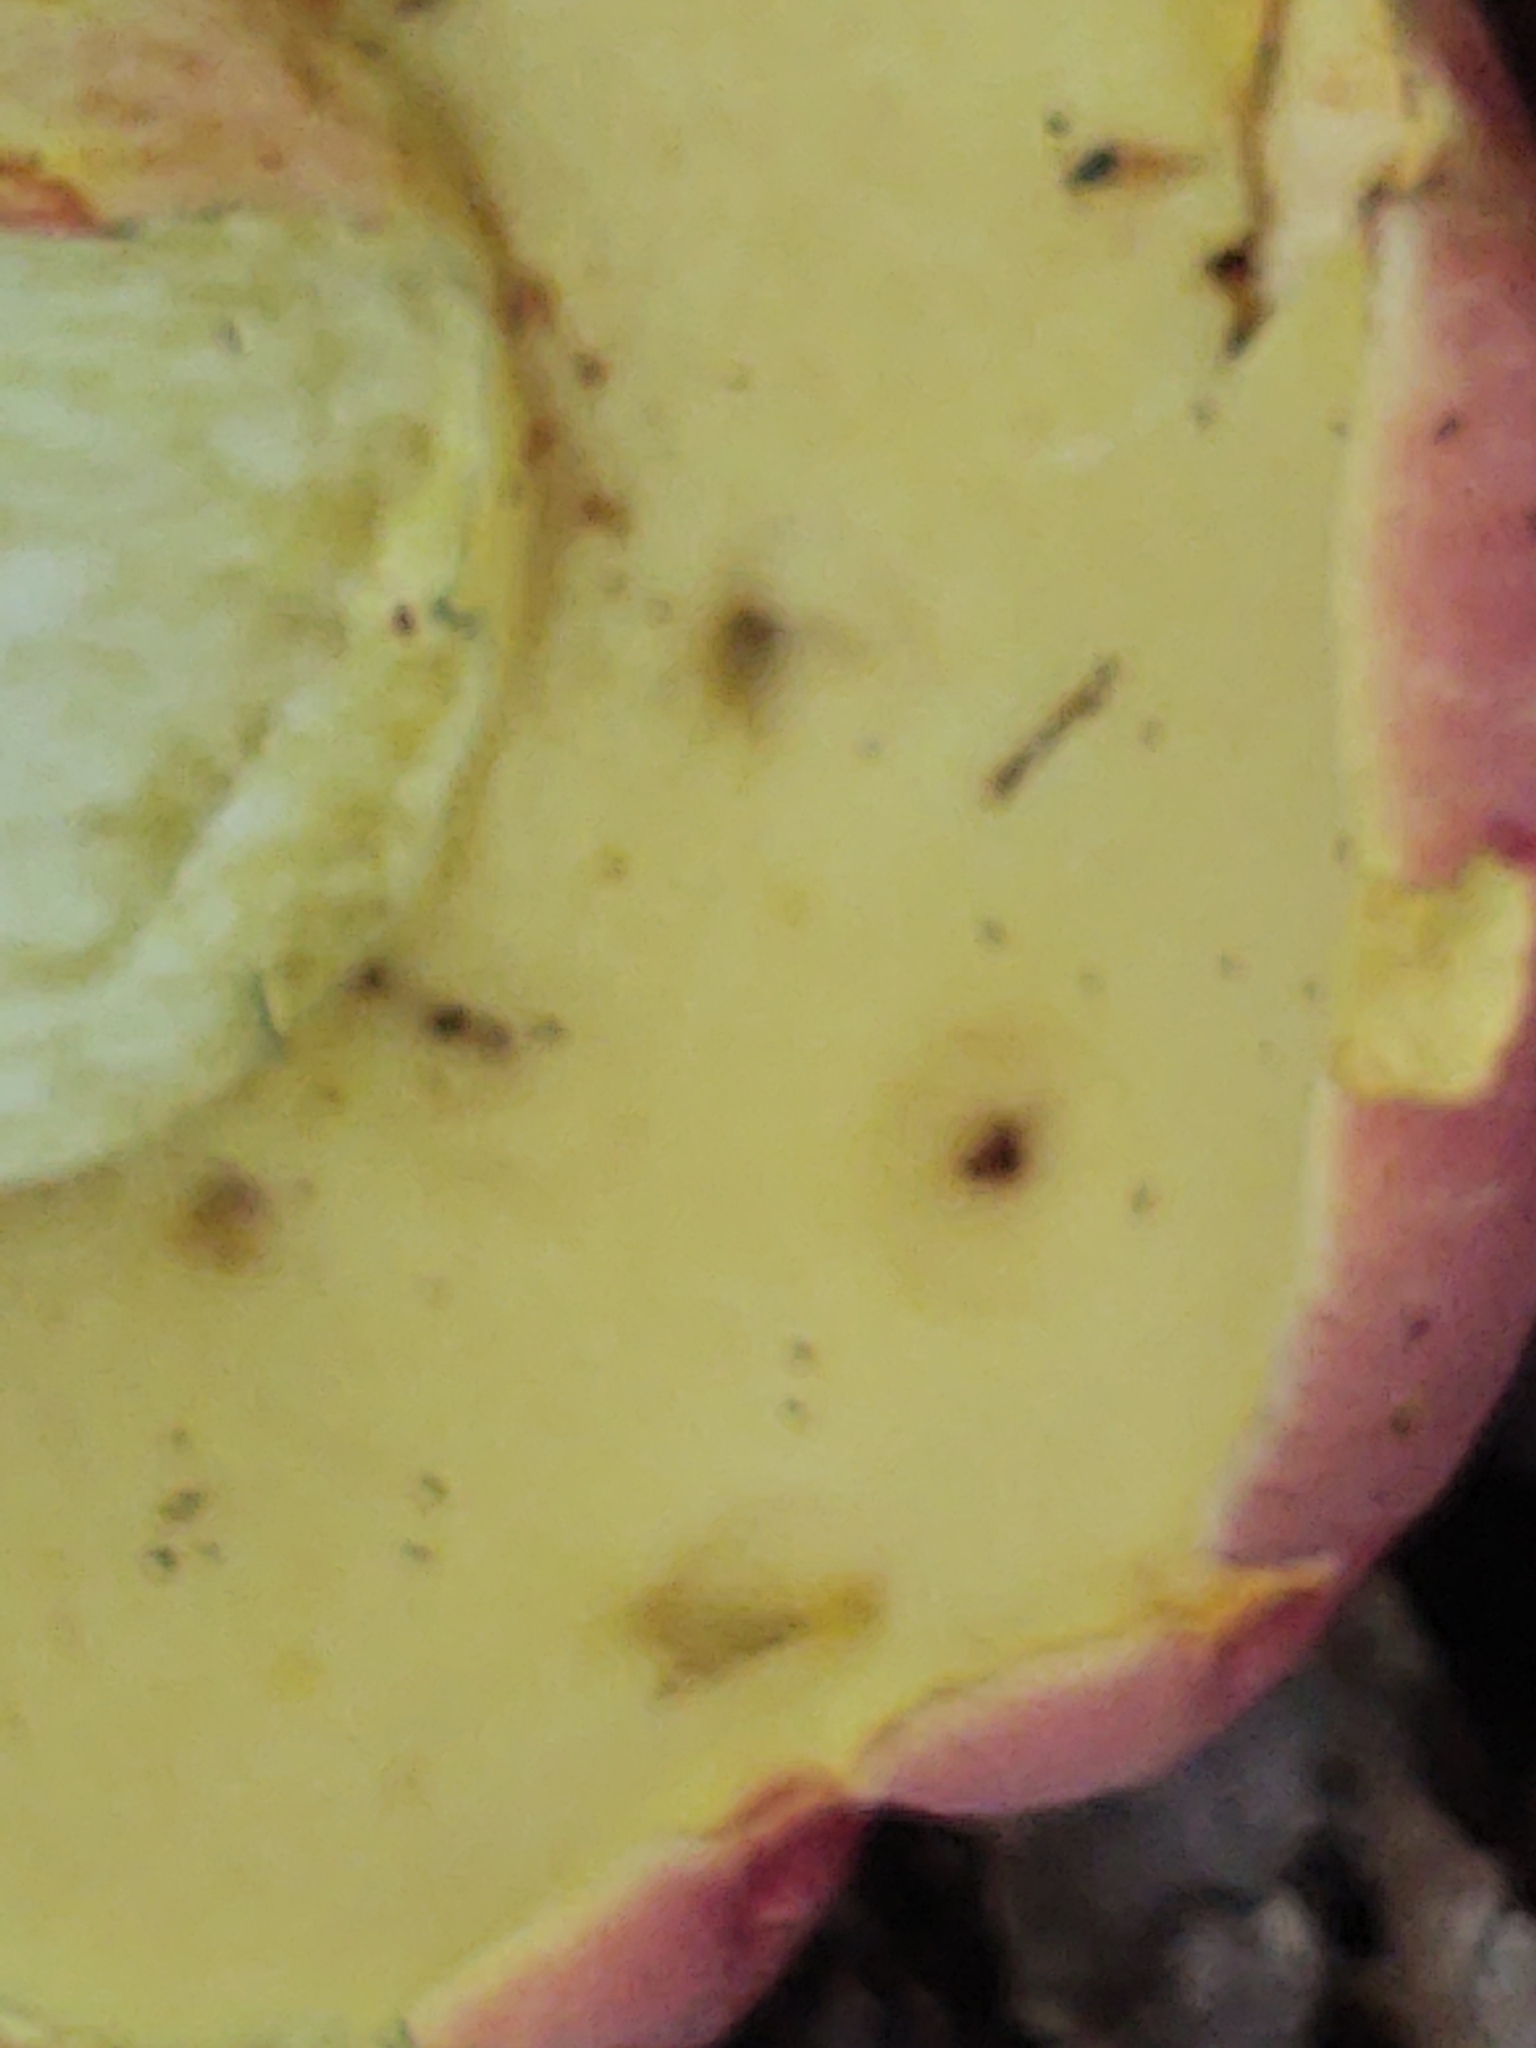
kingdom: Fungi
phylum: Basidiomycota
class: Agaricomycetes
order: Boletales
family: Boletaceae
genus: Baorangia
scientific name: Baorangia bicolor
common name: Two-colored bolete
